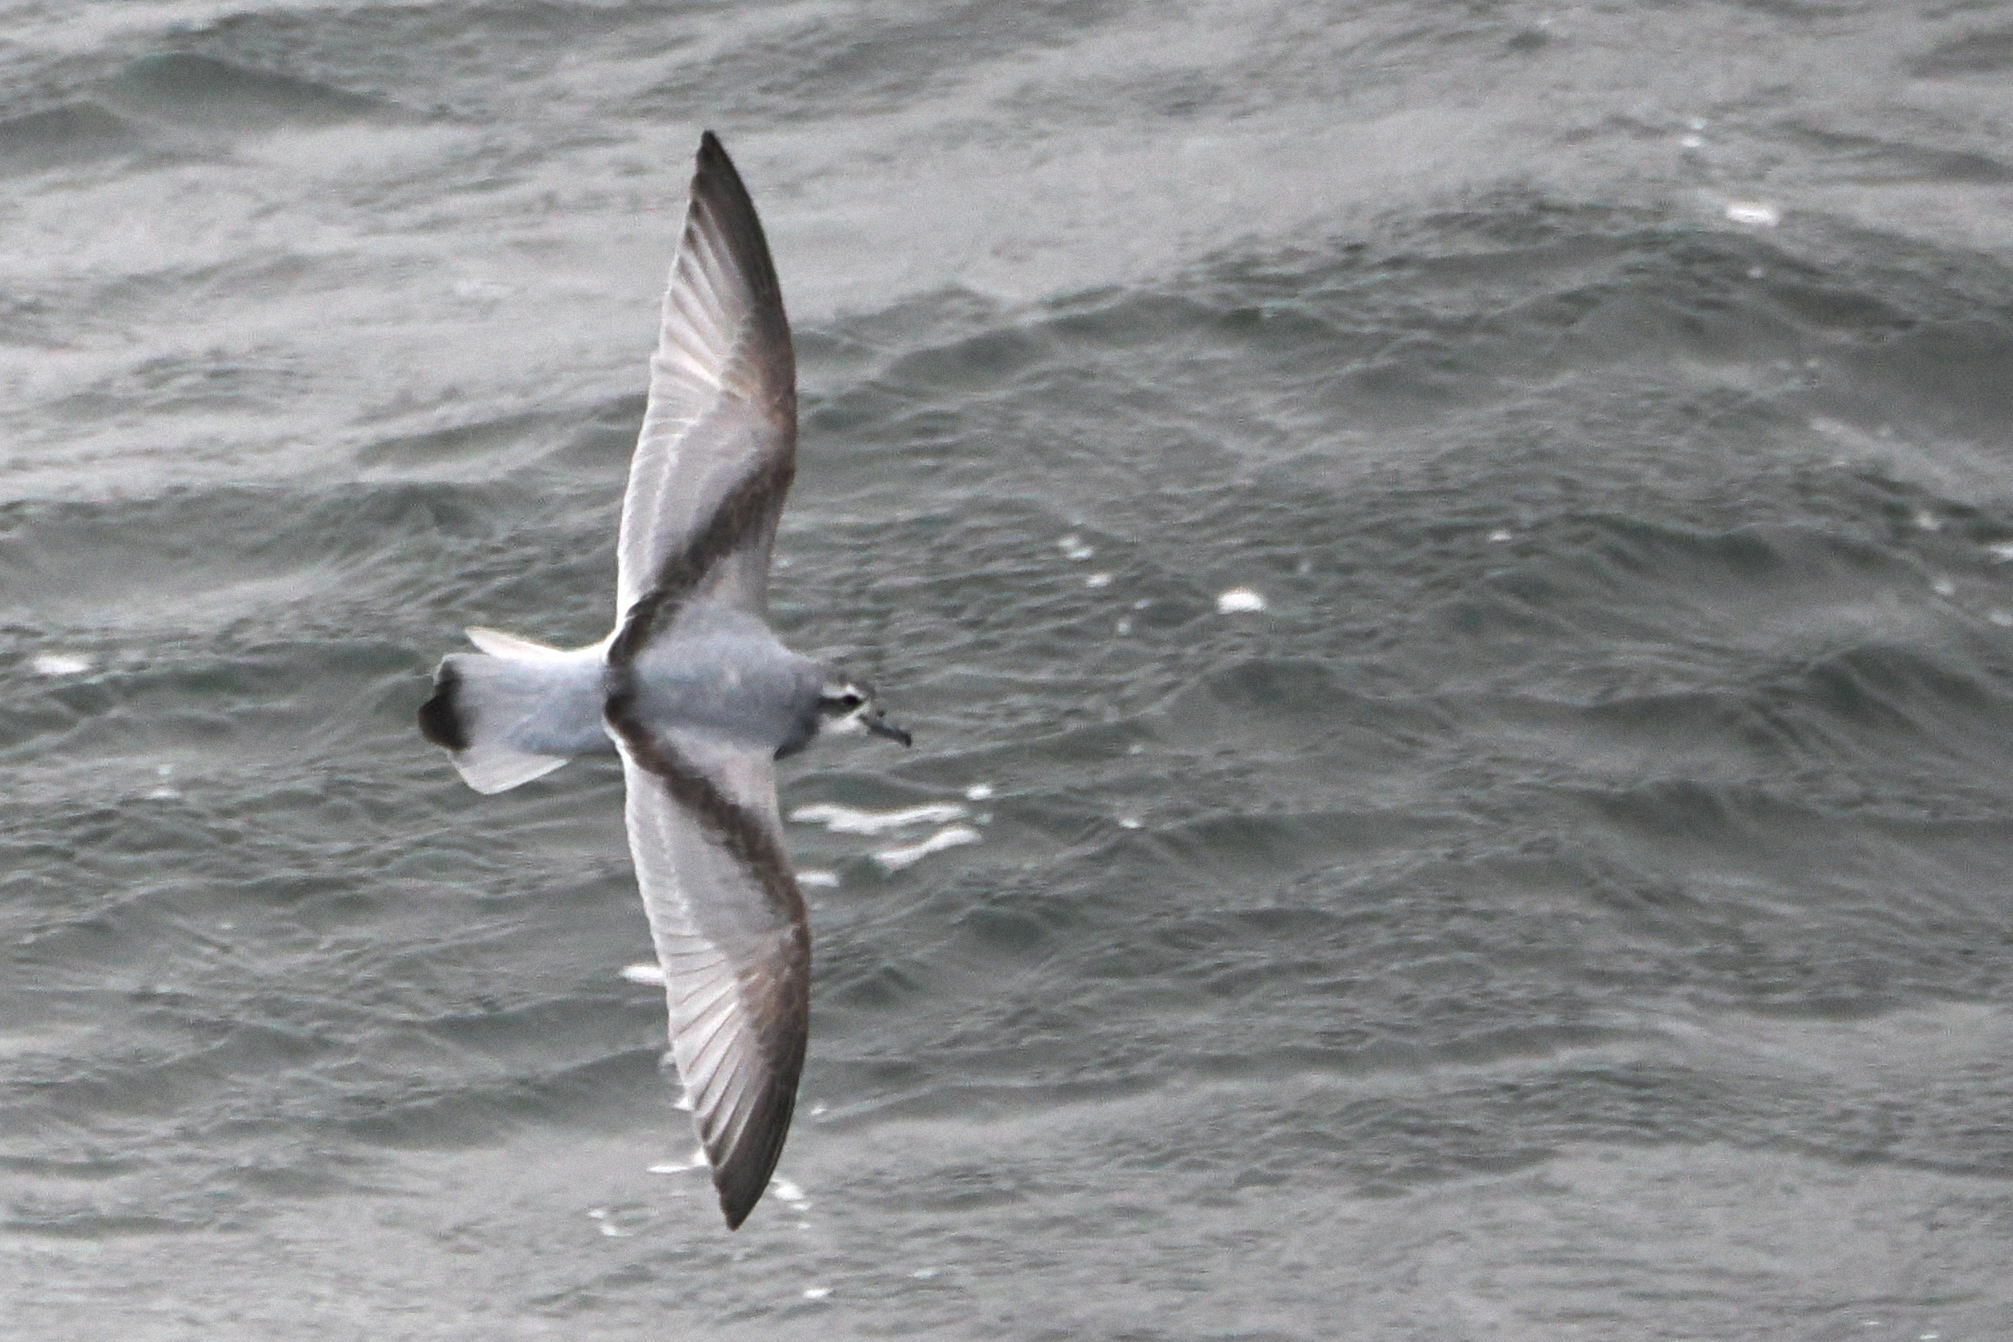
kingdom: Animalia
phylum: Chordata
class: Aves
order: Procellariiformes
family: Procellariidae
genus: Pachyptila
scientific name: Pachyptila desolata
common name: Antarctic prion
